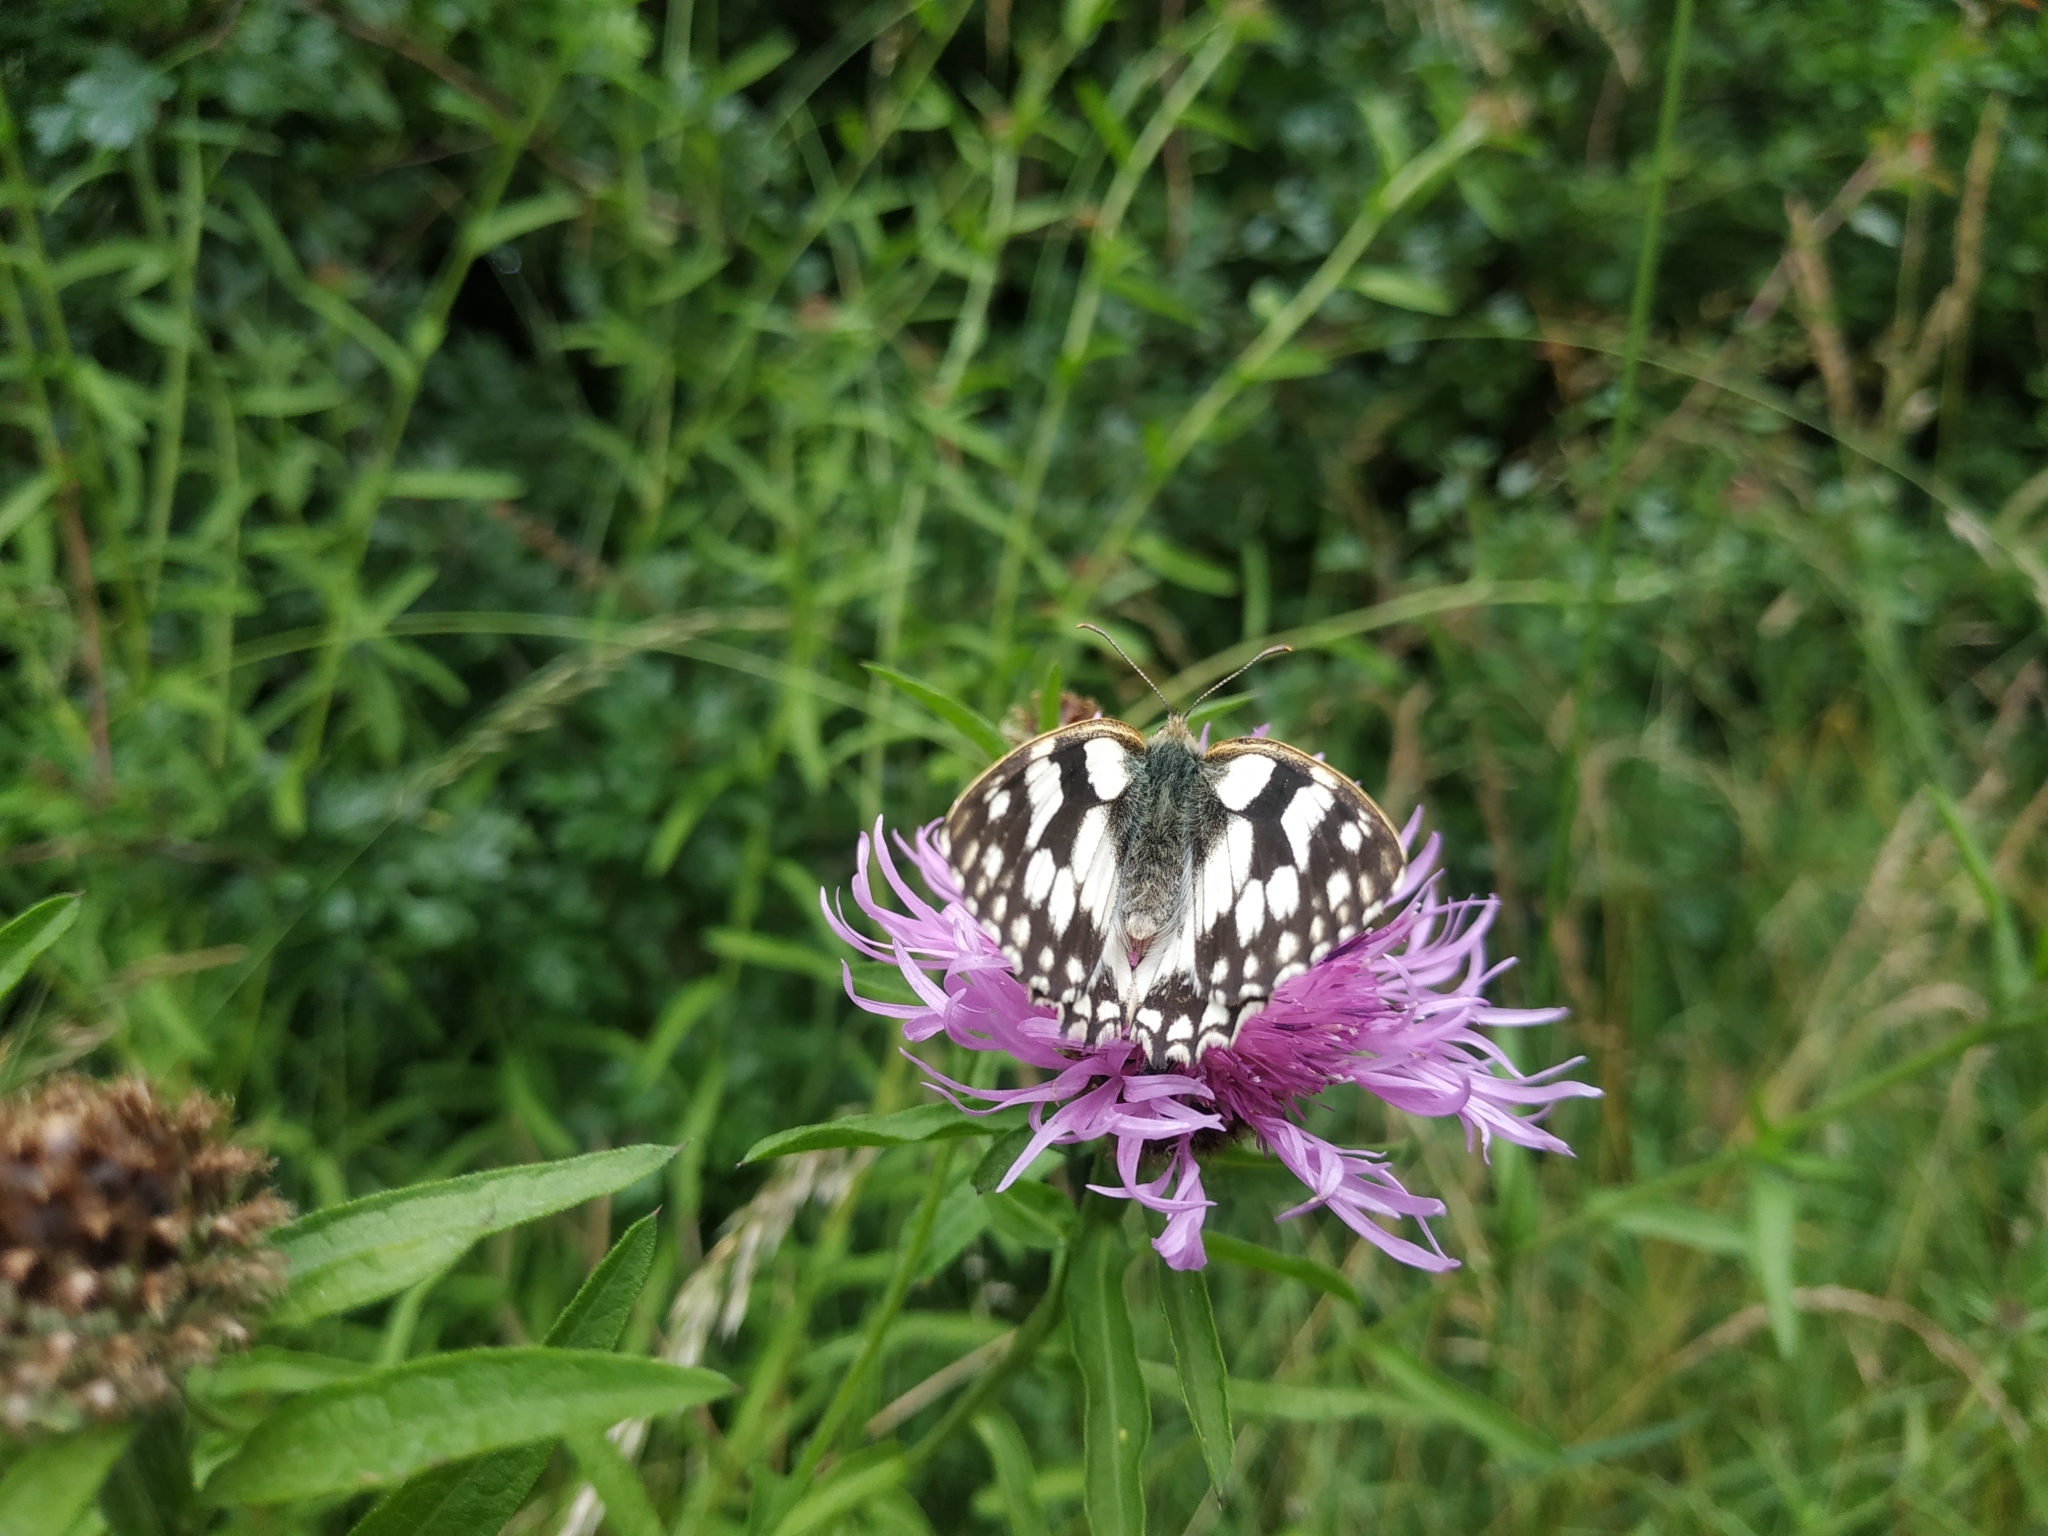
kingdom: Animalia
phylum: Arthropoda
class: Insecta
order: Lepidoptera
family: Nymphalidae
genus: Melanargia
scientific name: Melanargia galathea
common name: Marbled white
